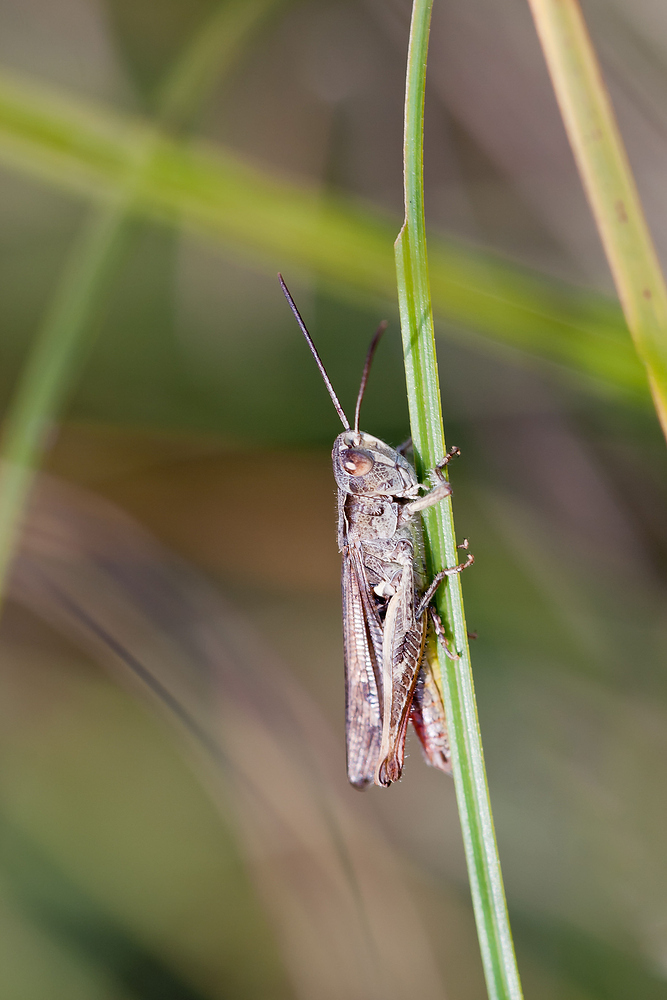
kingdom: Animalia
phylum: Arthropoda
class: Insecta
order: Orthoptera
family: Acrididae
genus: Gomphocerippus
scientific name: Gomphocerippus rufus
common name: Rufous grasshopper
